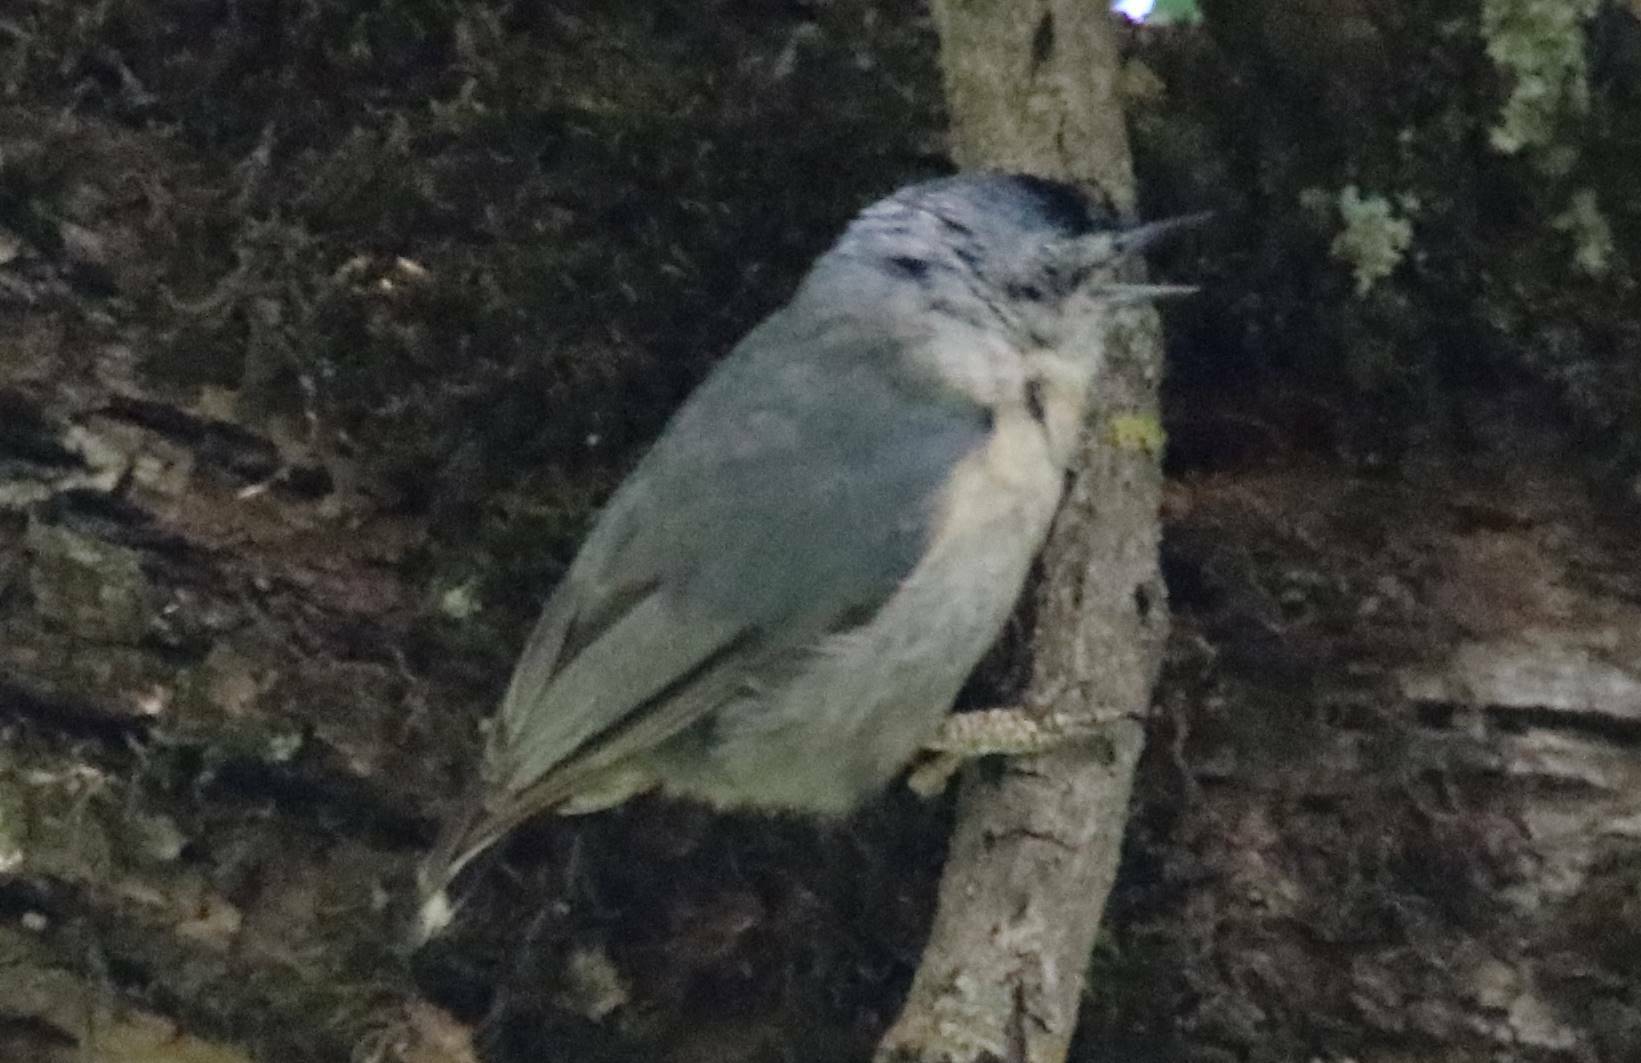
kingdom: Animalia
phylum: Chordata
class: Aves
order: Passeriformes
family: Sittidae
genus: Sitta
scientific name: Sitta ledanti
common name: Algerian nuthatch
